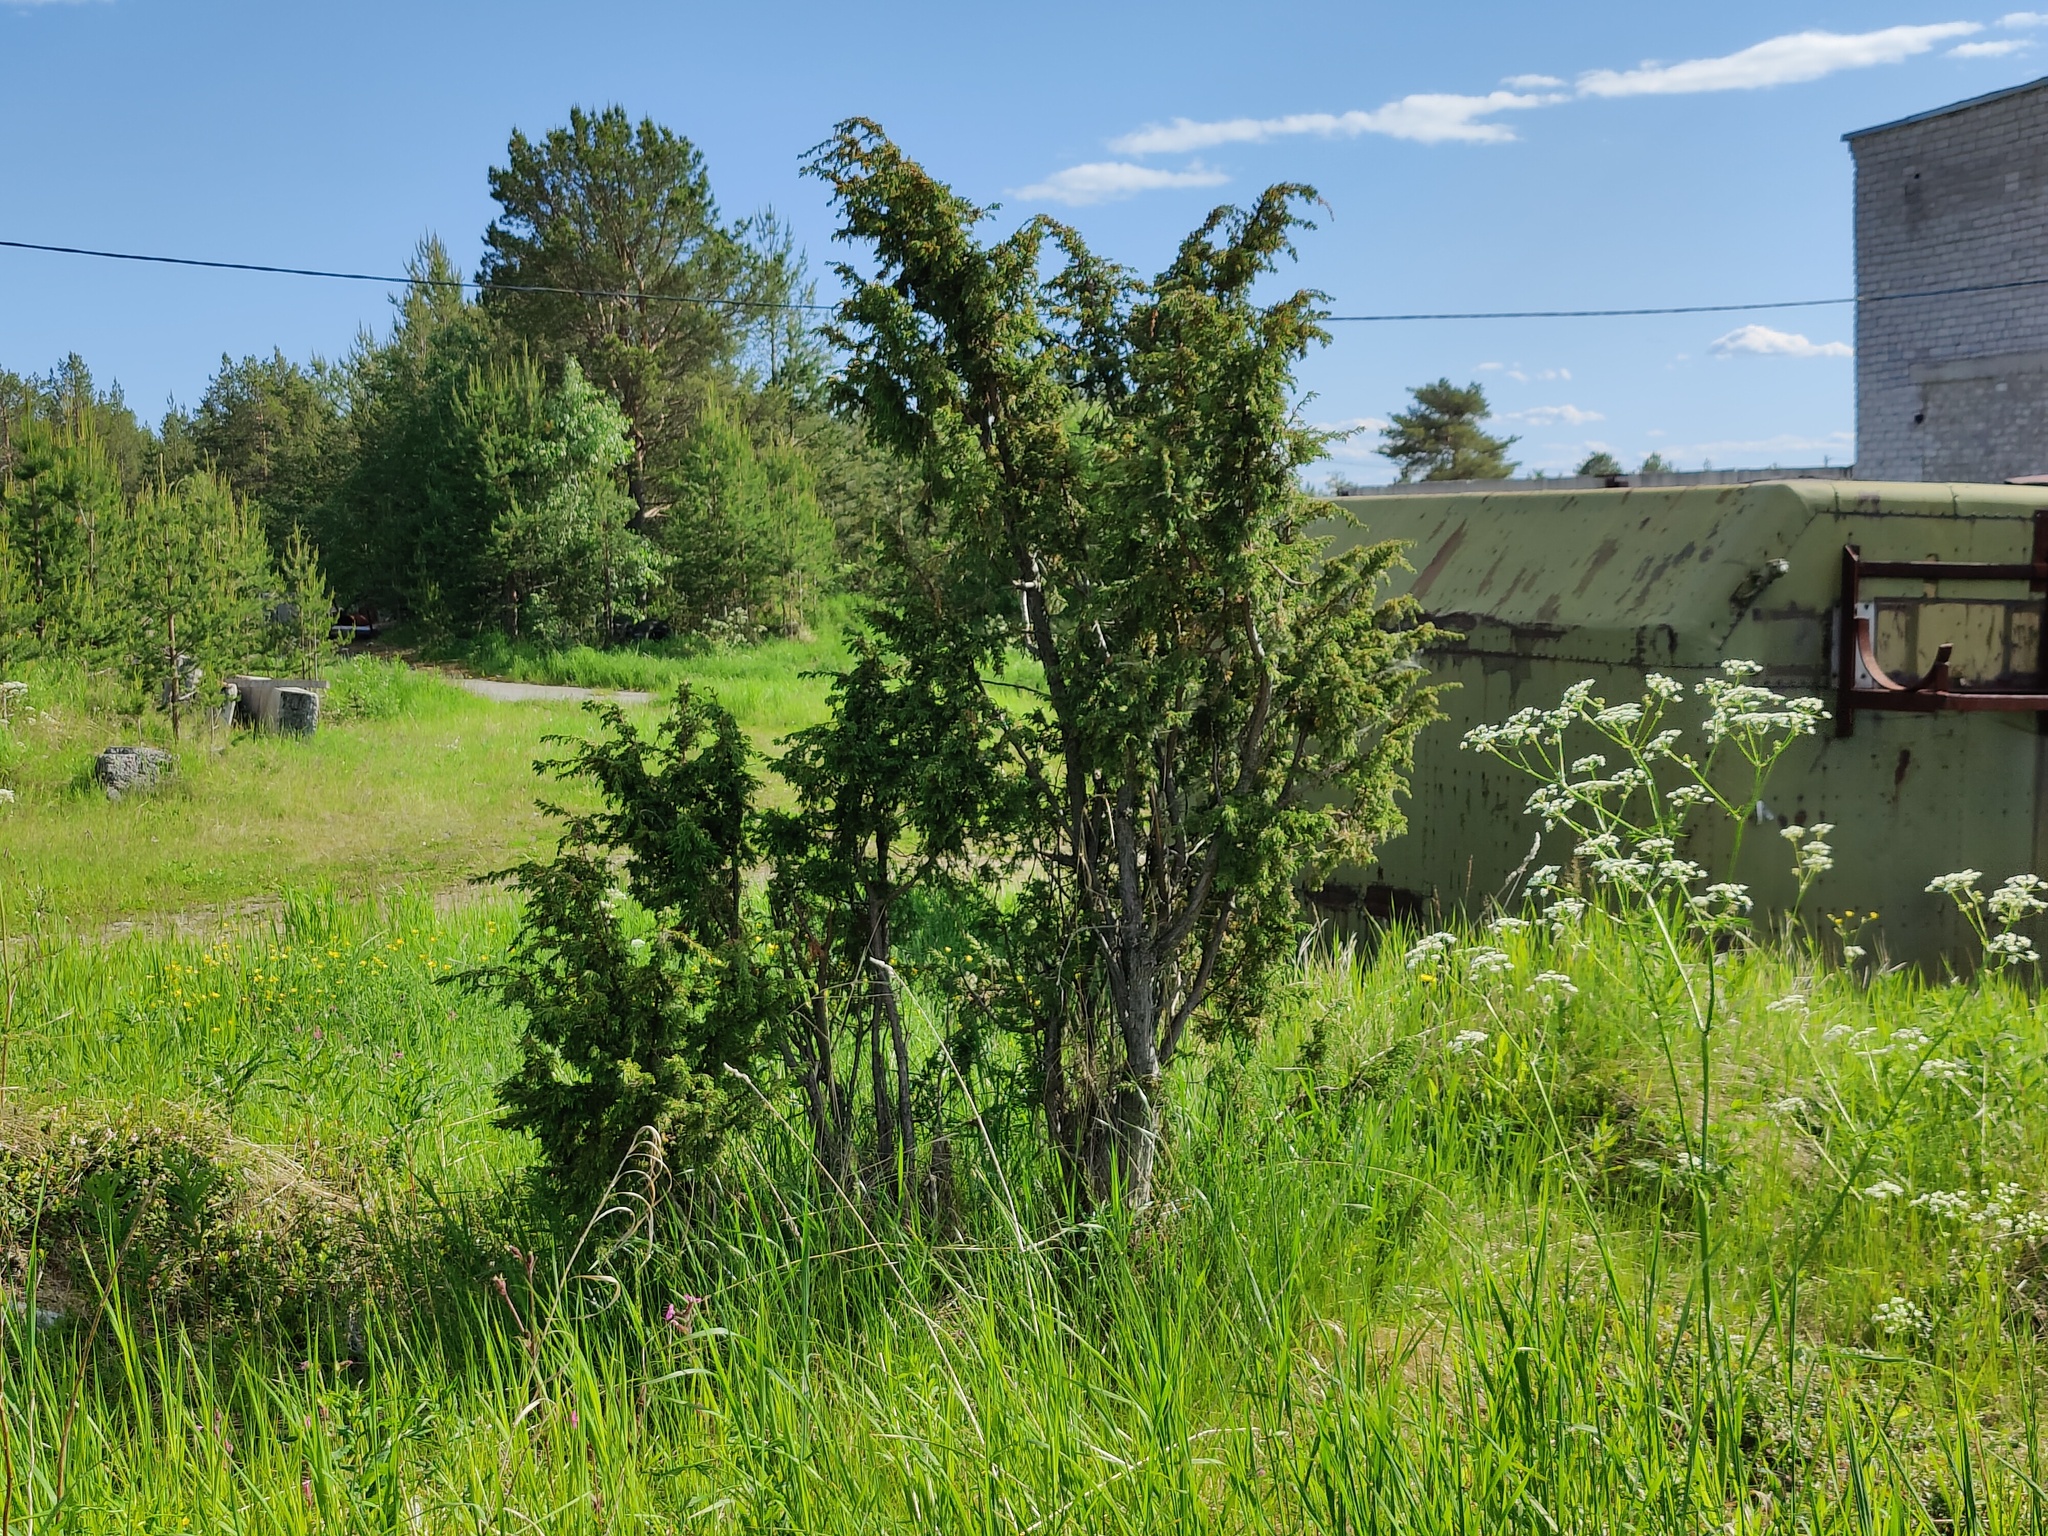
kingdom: Plantae
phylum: Tracheophyta
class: Pinopsida
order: Pinales
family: Cupressaceae
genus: Juniperus
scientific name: Juniperus communis
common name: Common juniper
